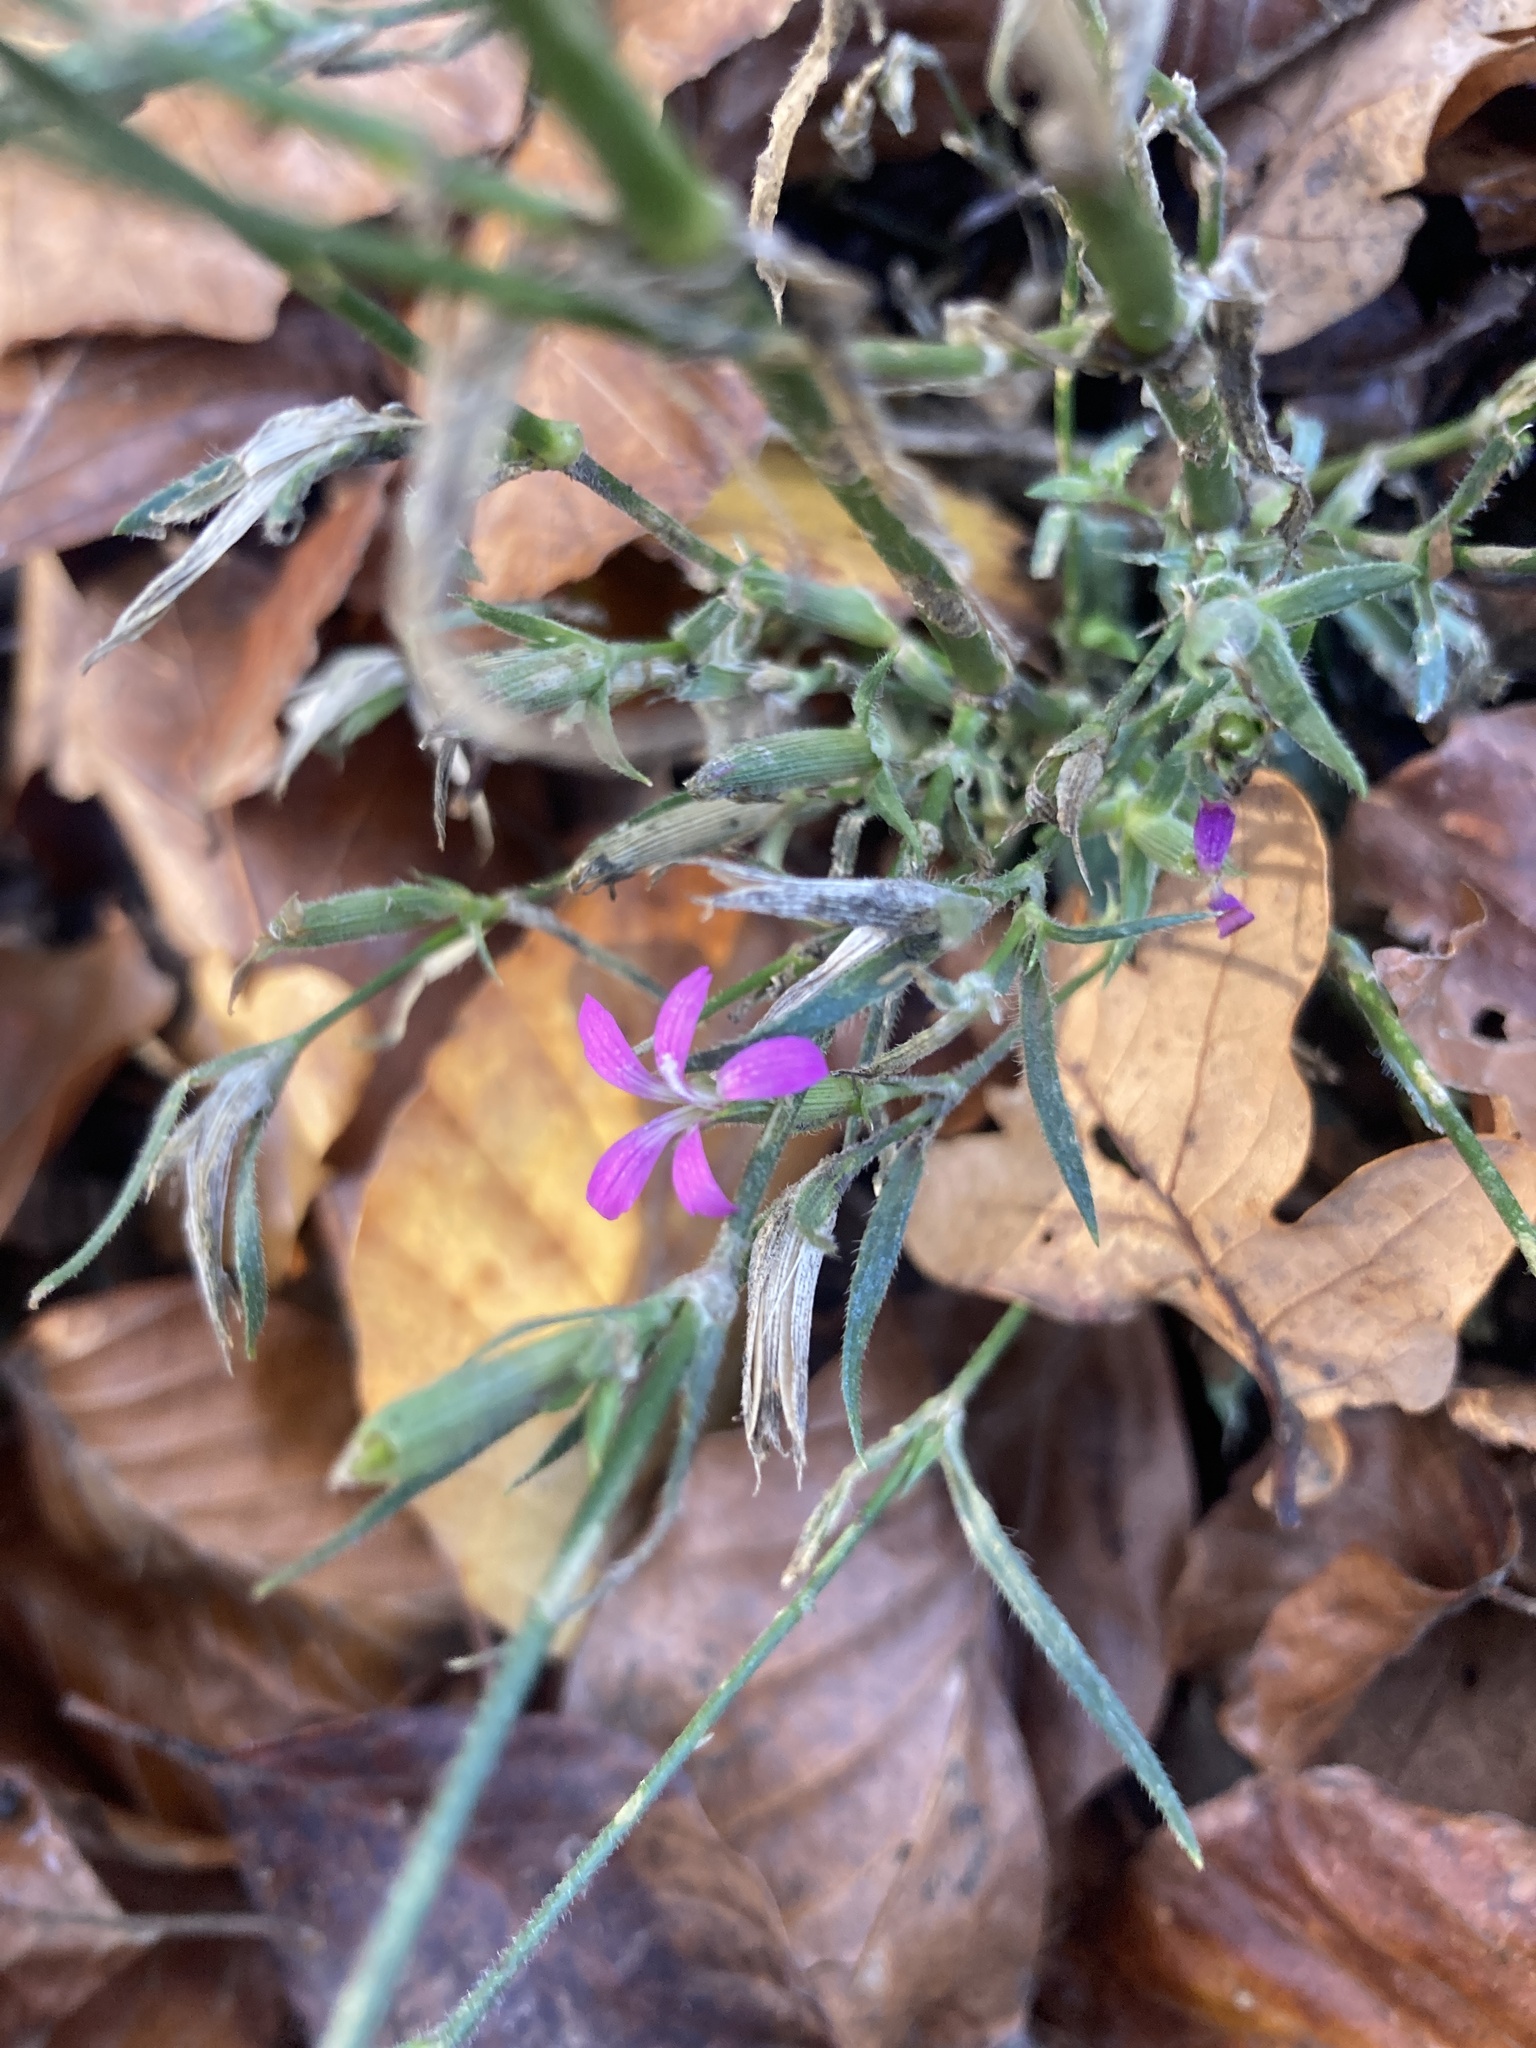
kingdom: Plantae
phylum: Tracheophyta
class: Magnoliopsida
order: Caryophyllales
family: Caryophyllaceae
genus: Dianthus
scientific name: Dianthus armeria
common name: Deptford pink
